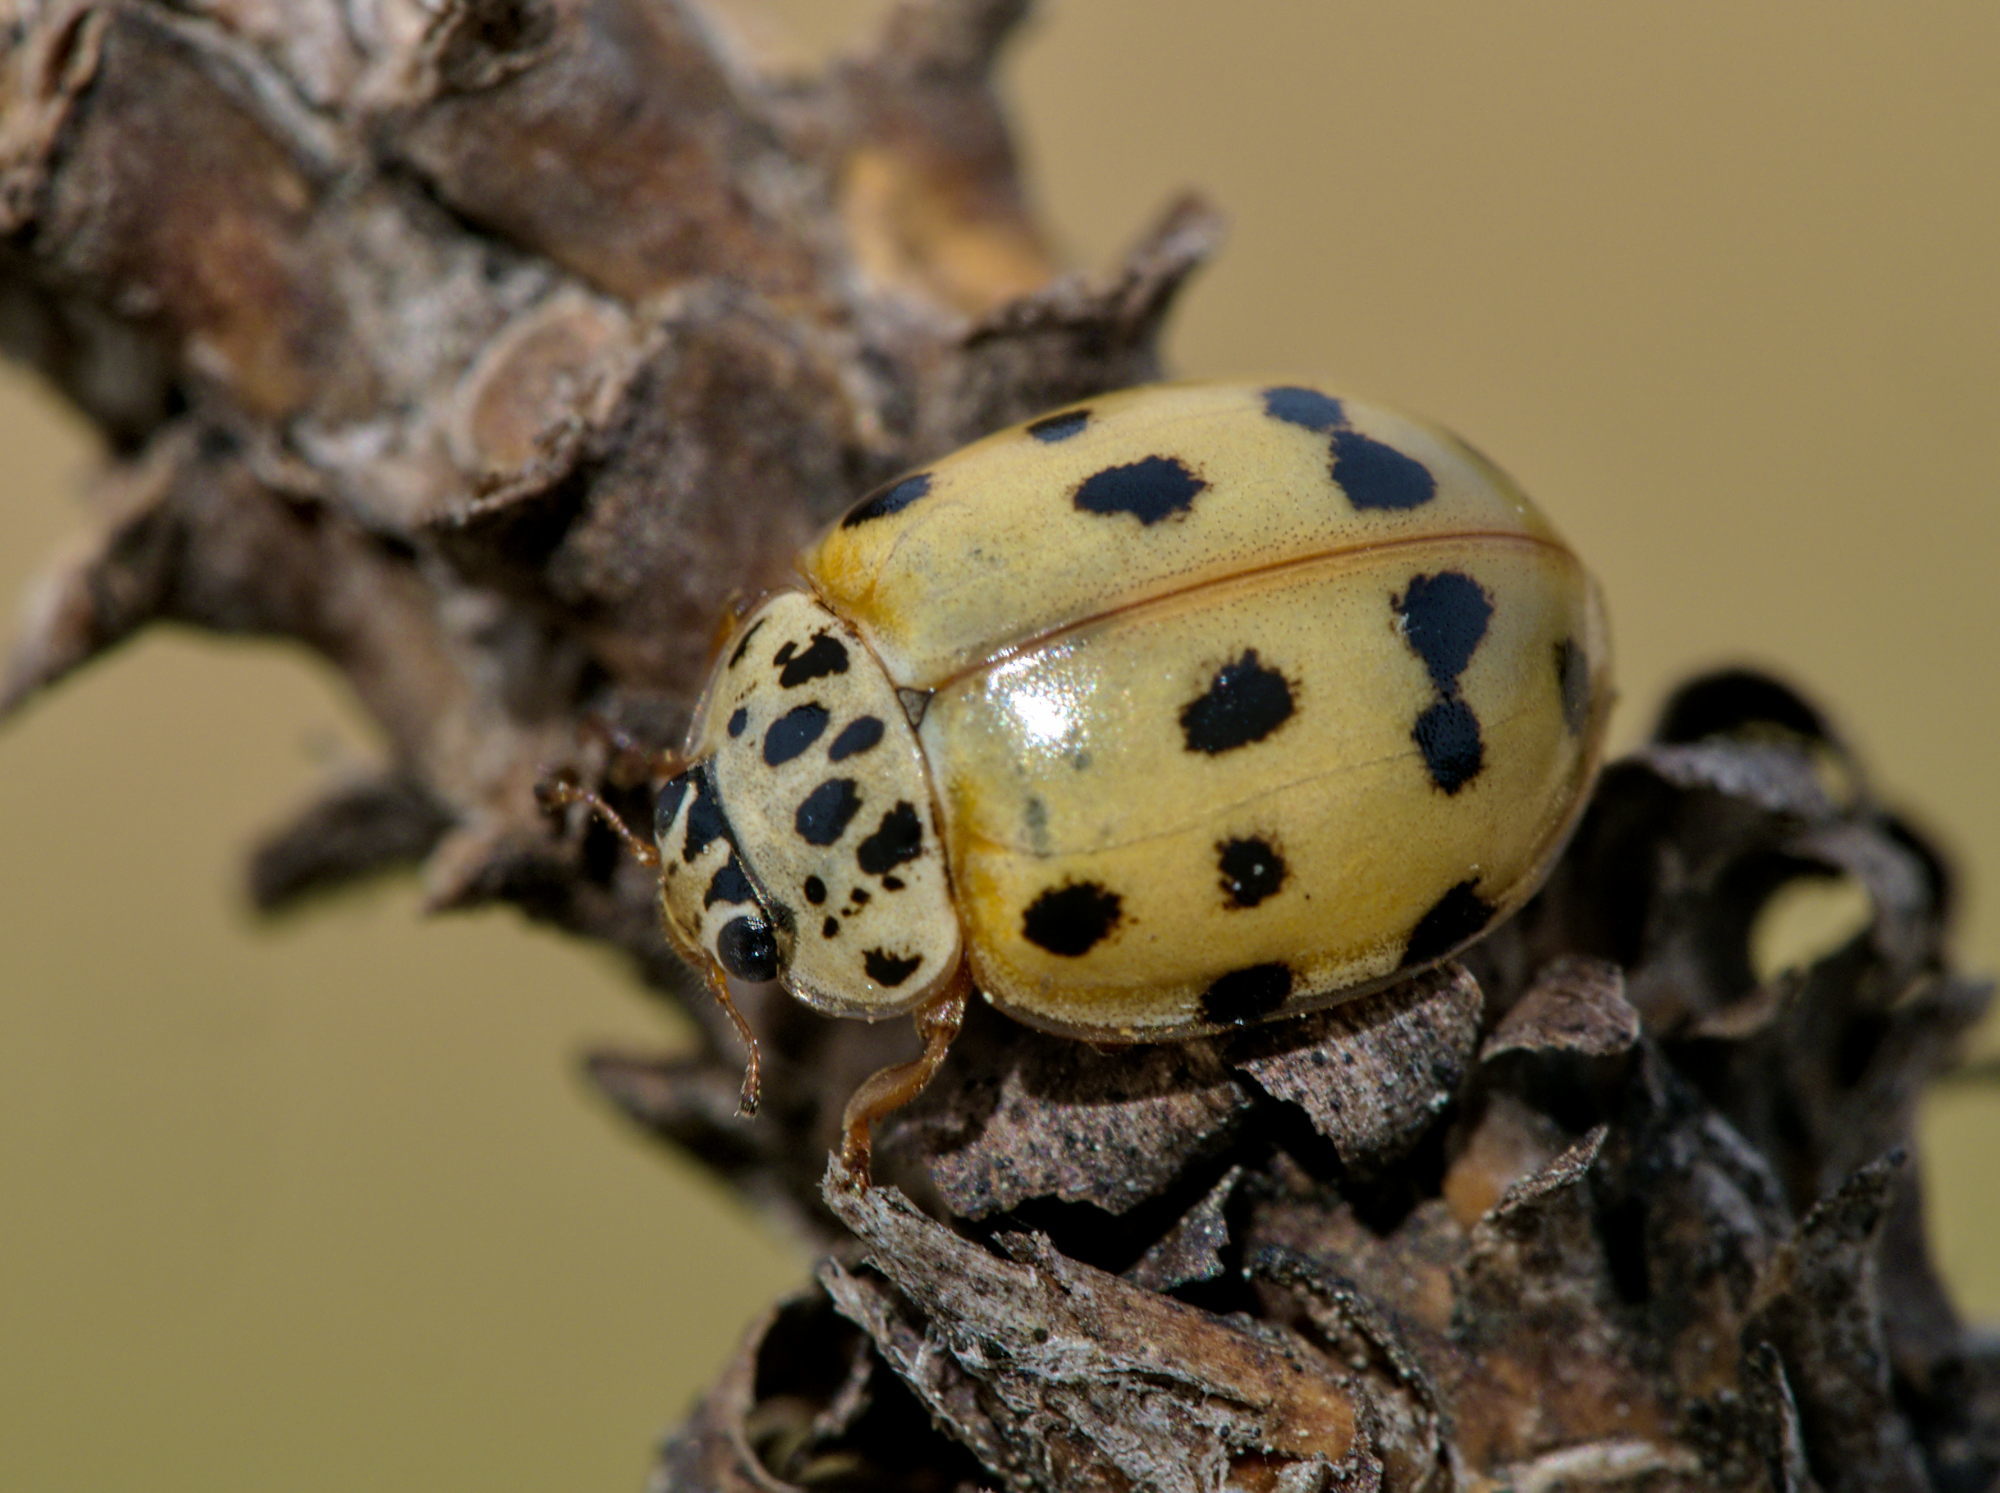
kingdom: Animalia
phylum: Arthropoda
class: Insecta
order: Coleoptera
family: Coccinellidae
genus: Harmonia
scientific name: Harmonia quadripunctata
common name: Cream-streaked ladybird
